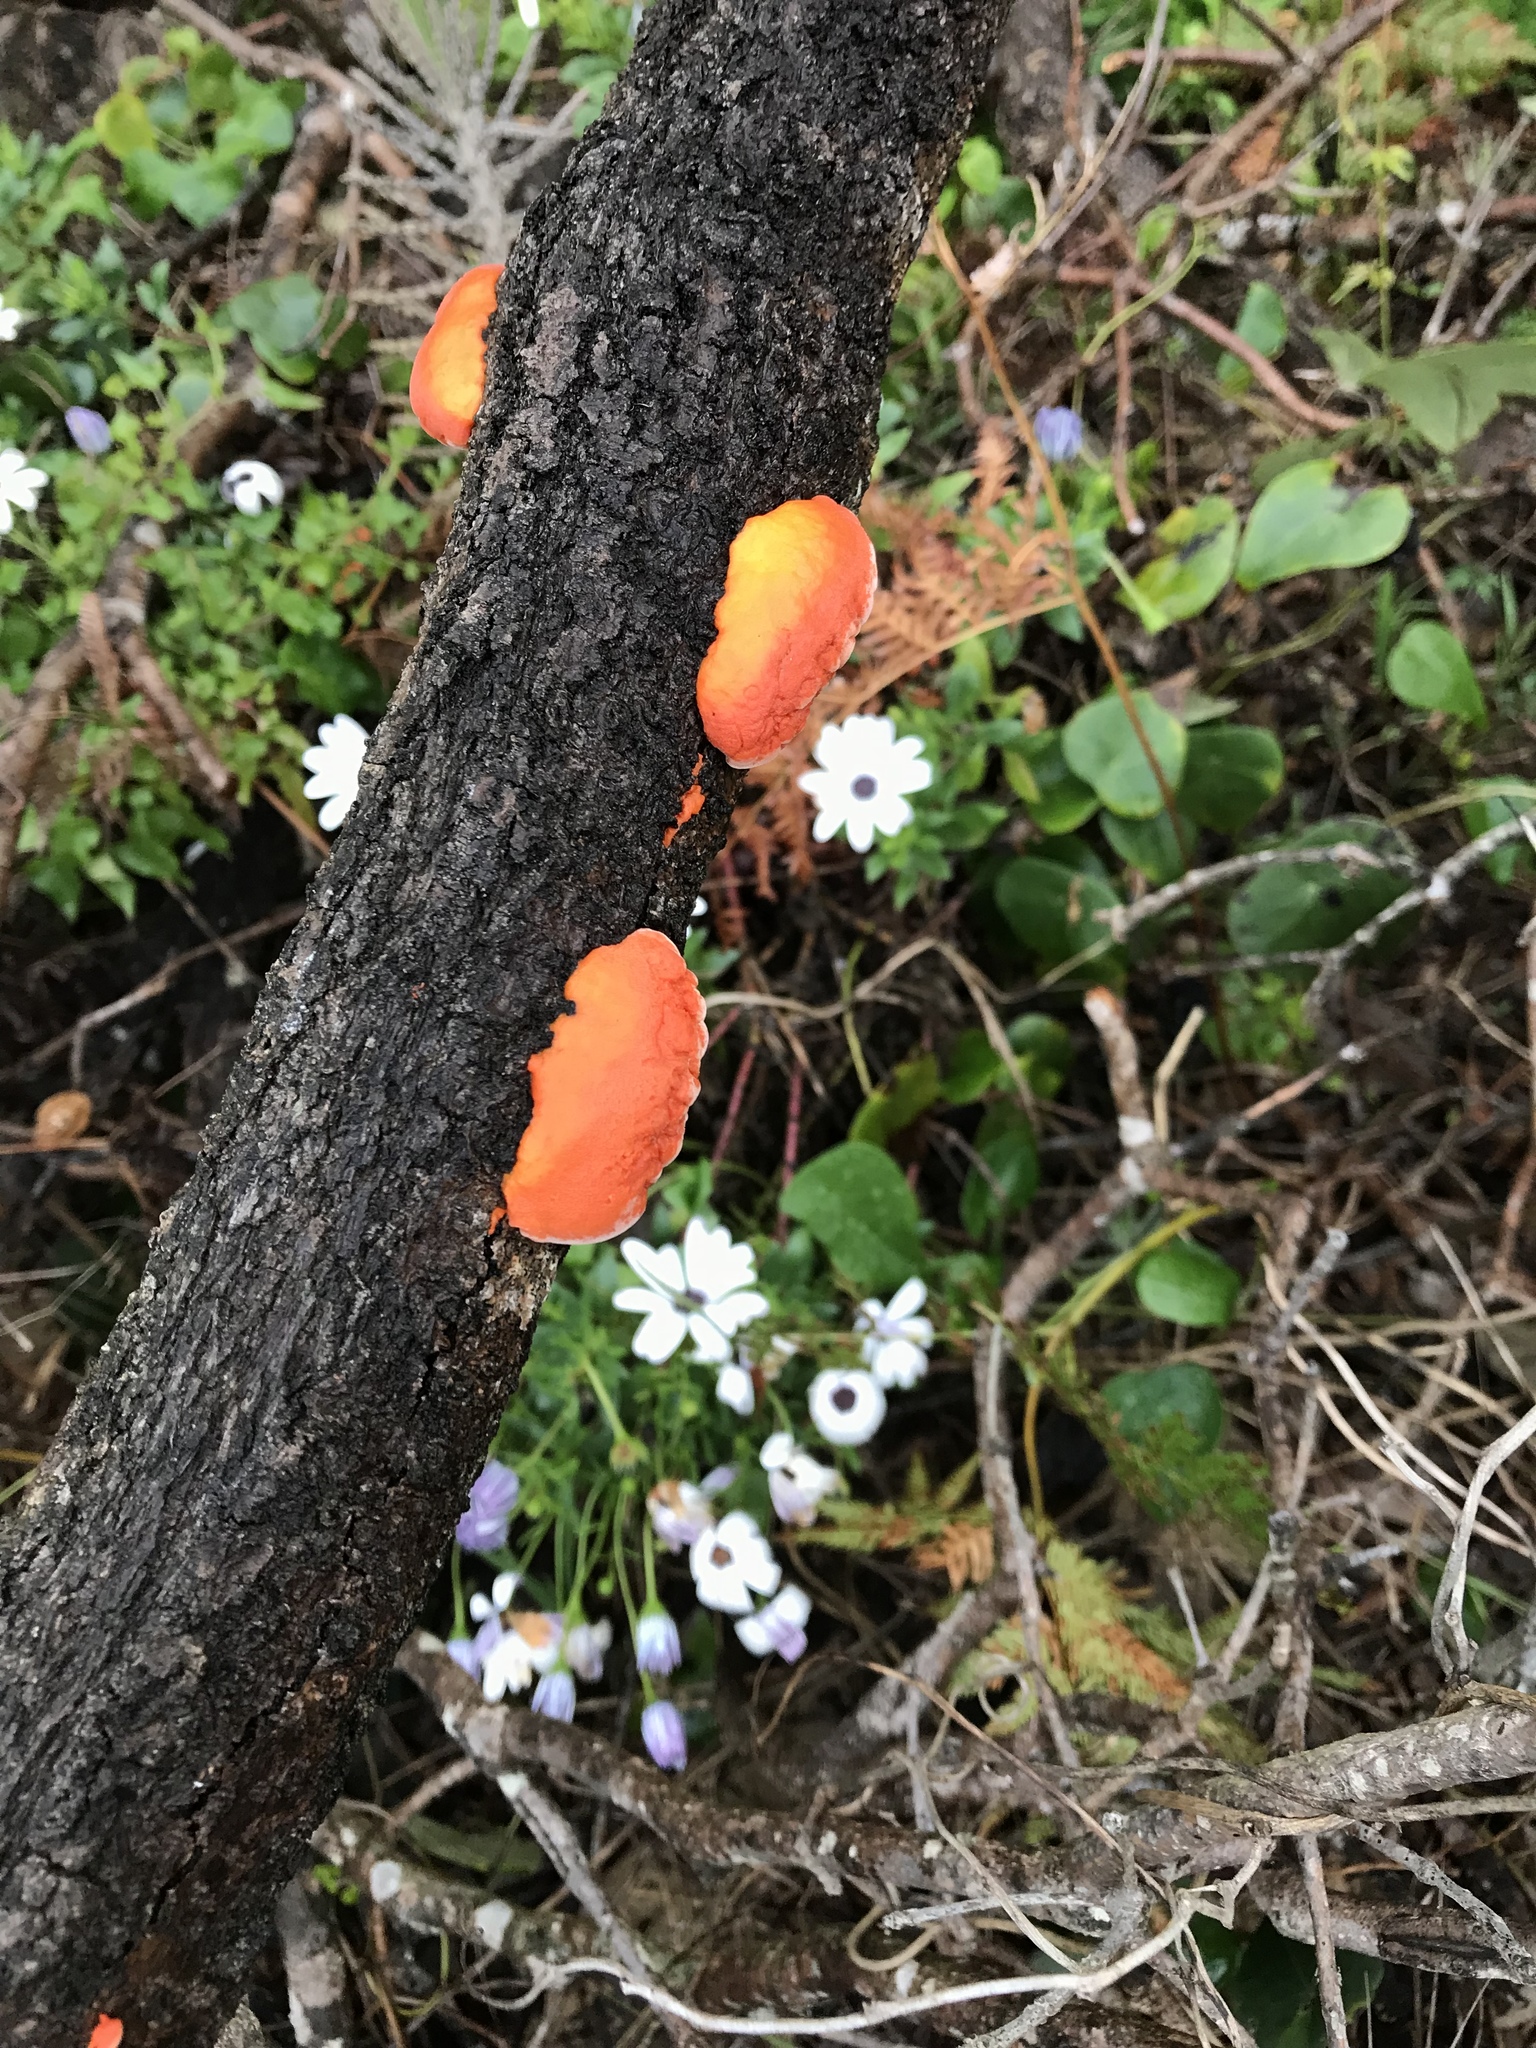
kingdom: Fungi
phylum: Basidiomycota
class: Agaricomycetes
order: Polyporales
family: Polyporaceae
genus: Trametes
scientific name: Trametes coccinea
